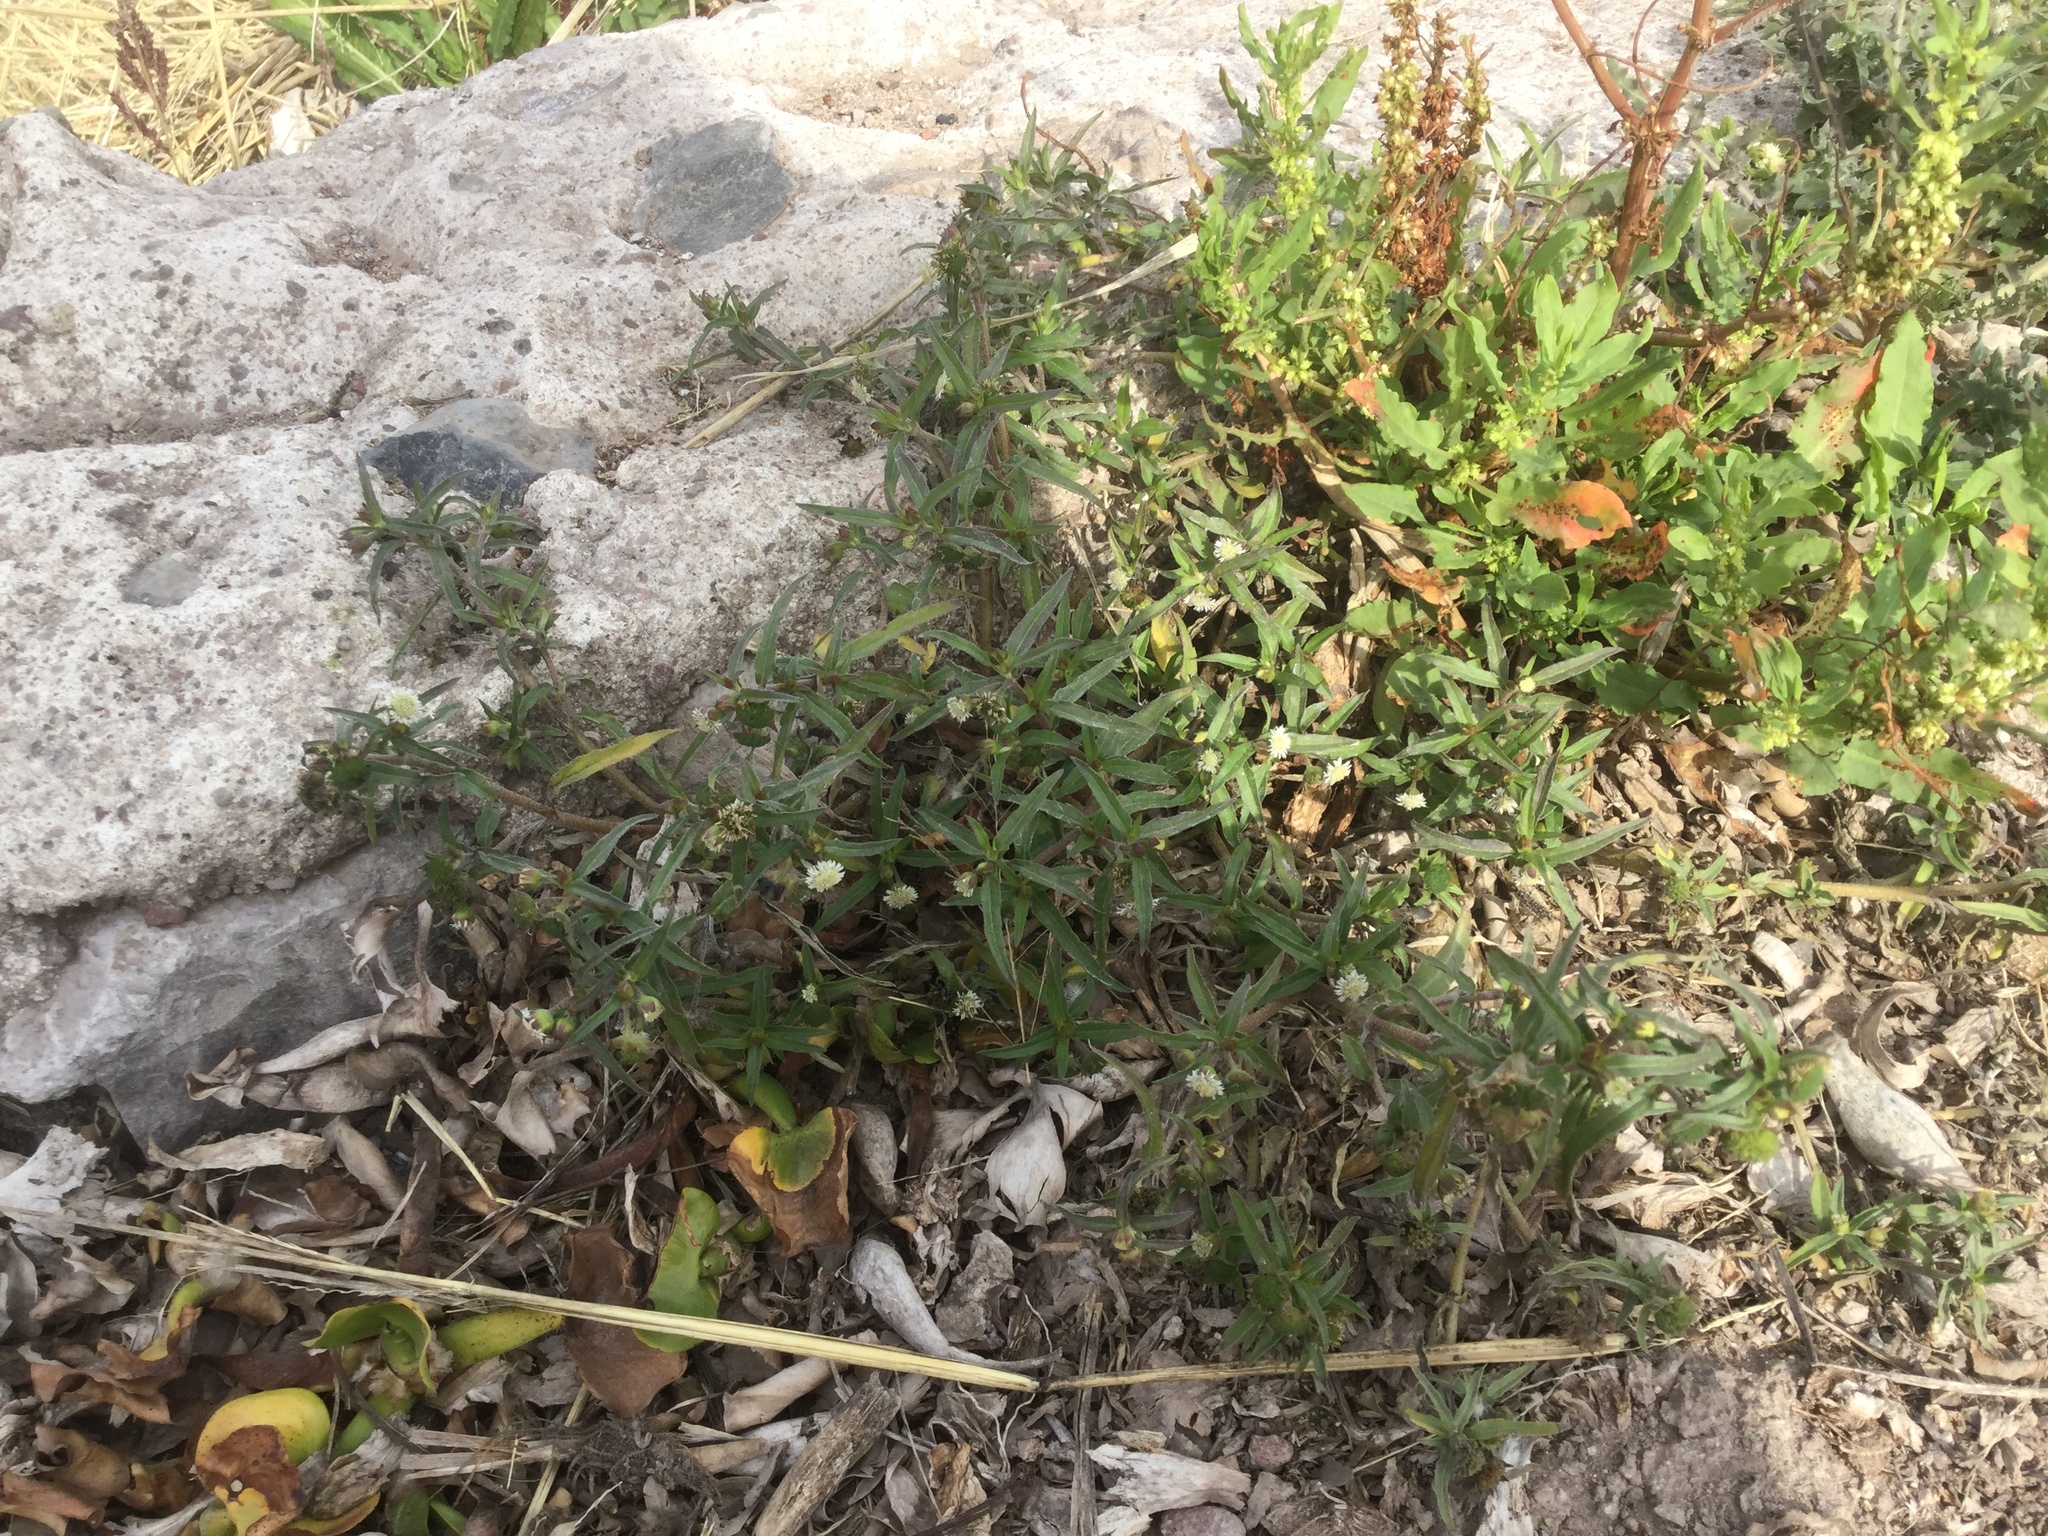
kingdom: Plantae
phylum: Tracheophyta
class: Magnoliopsida
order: Asterales
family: Asteraceae
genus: Eclipta
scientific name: Eclipta prostrata
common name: False daisy
